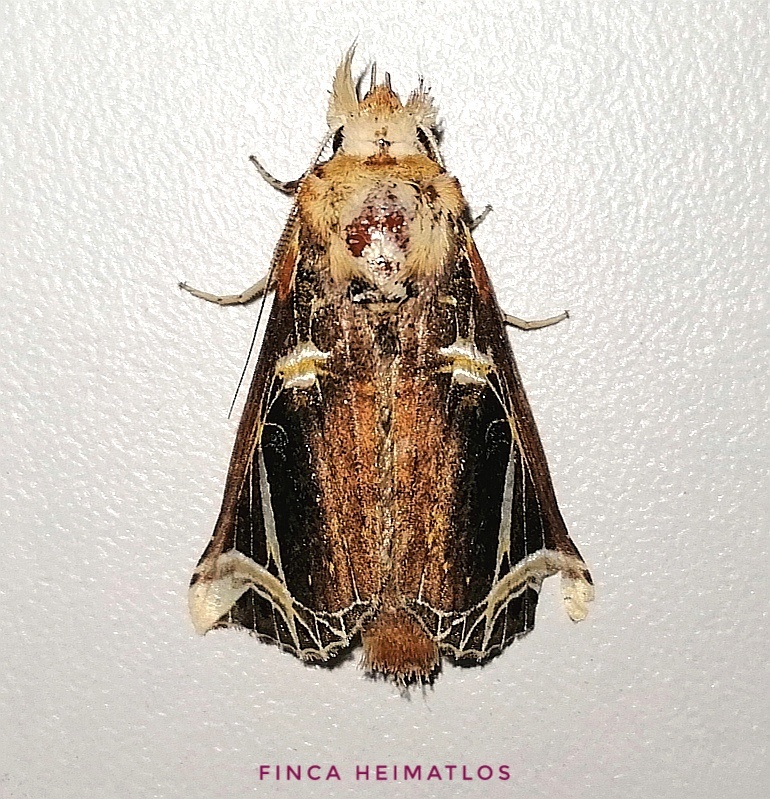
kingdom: Animalia
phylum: Arthropoda
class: Insecta
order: Lepidoptera
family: Notodontidae
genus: Calledema
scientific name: Calledema argenta
